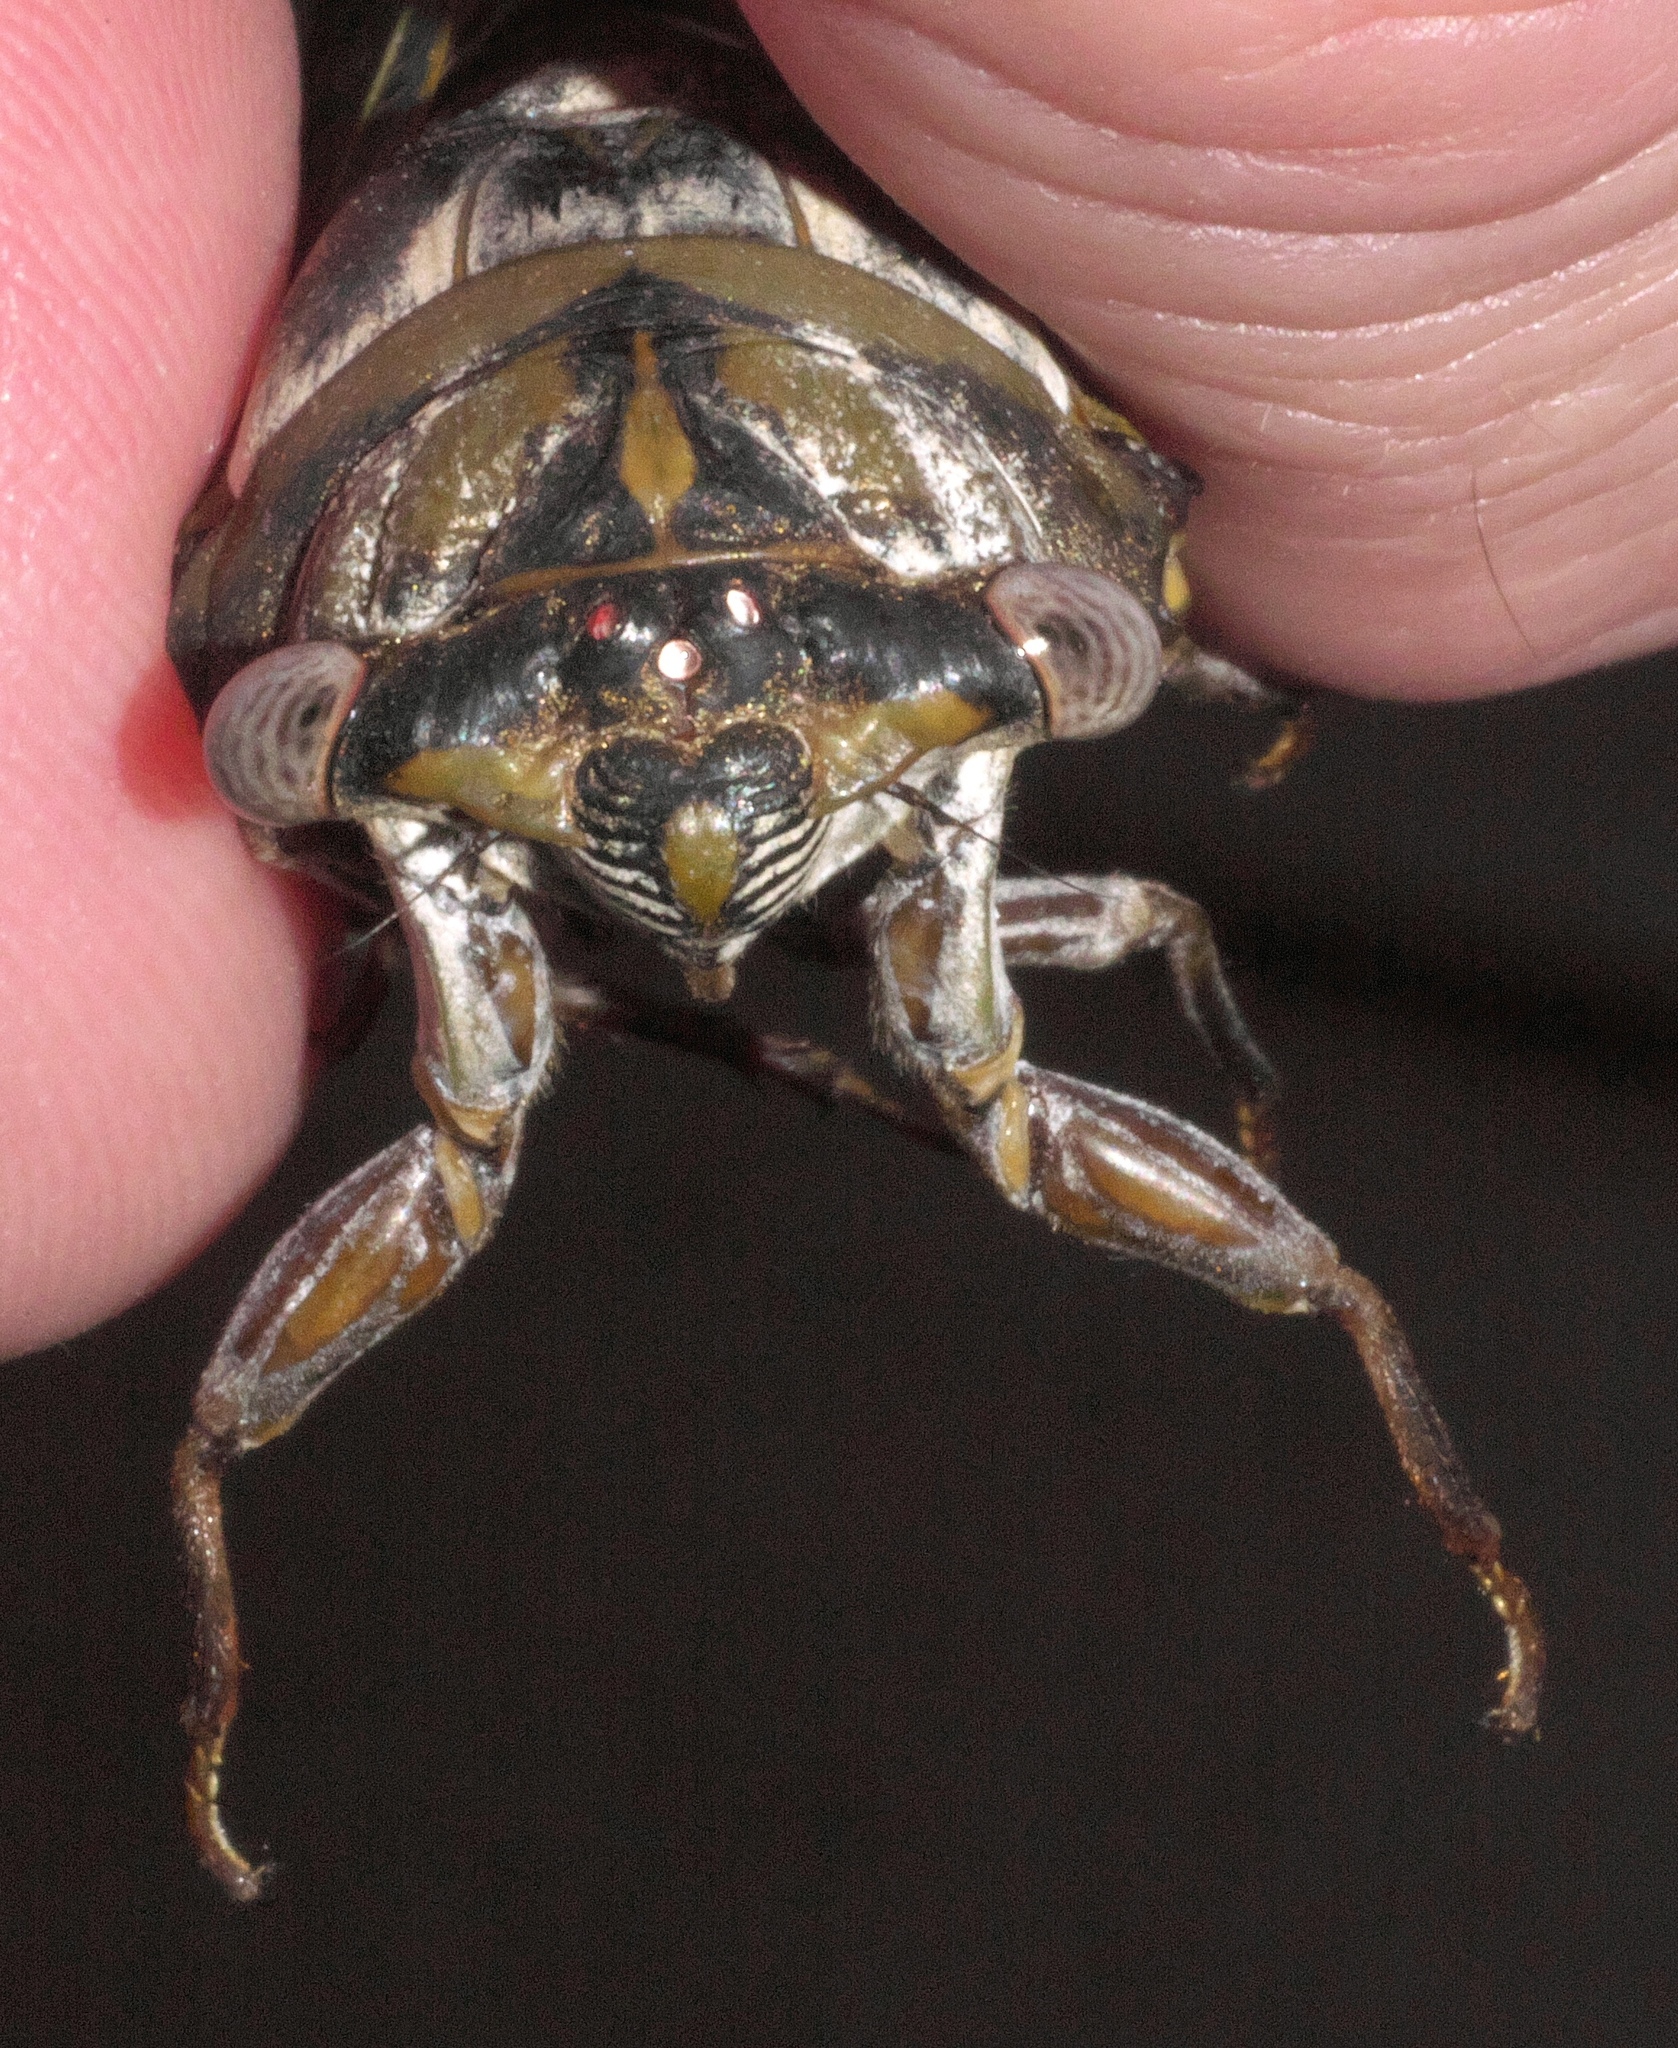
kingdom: Animalia
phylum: Arthropoda
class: Insecta
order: Hemiptera
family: Cicadidae
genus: Diceroprocta
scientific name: Diceroprocta grossa
